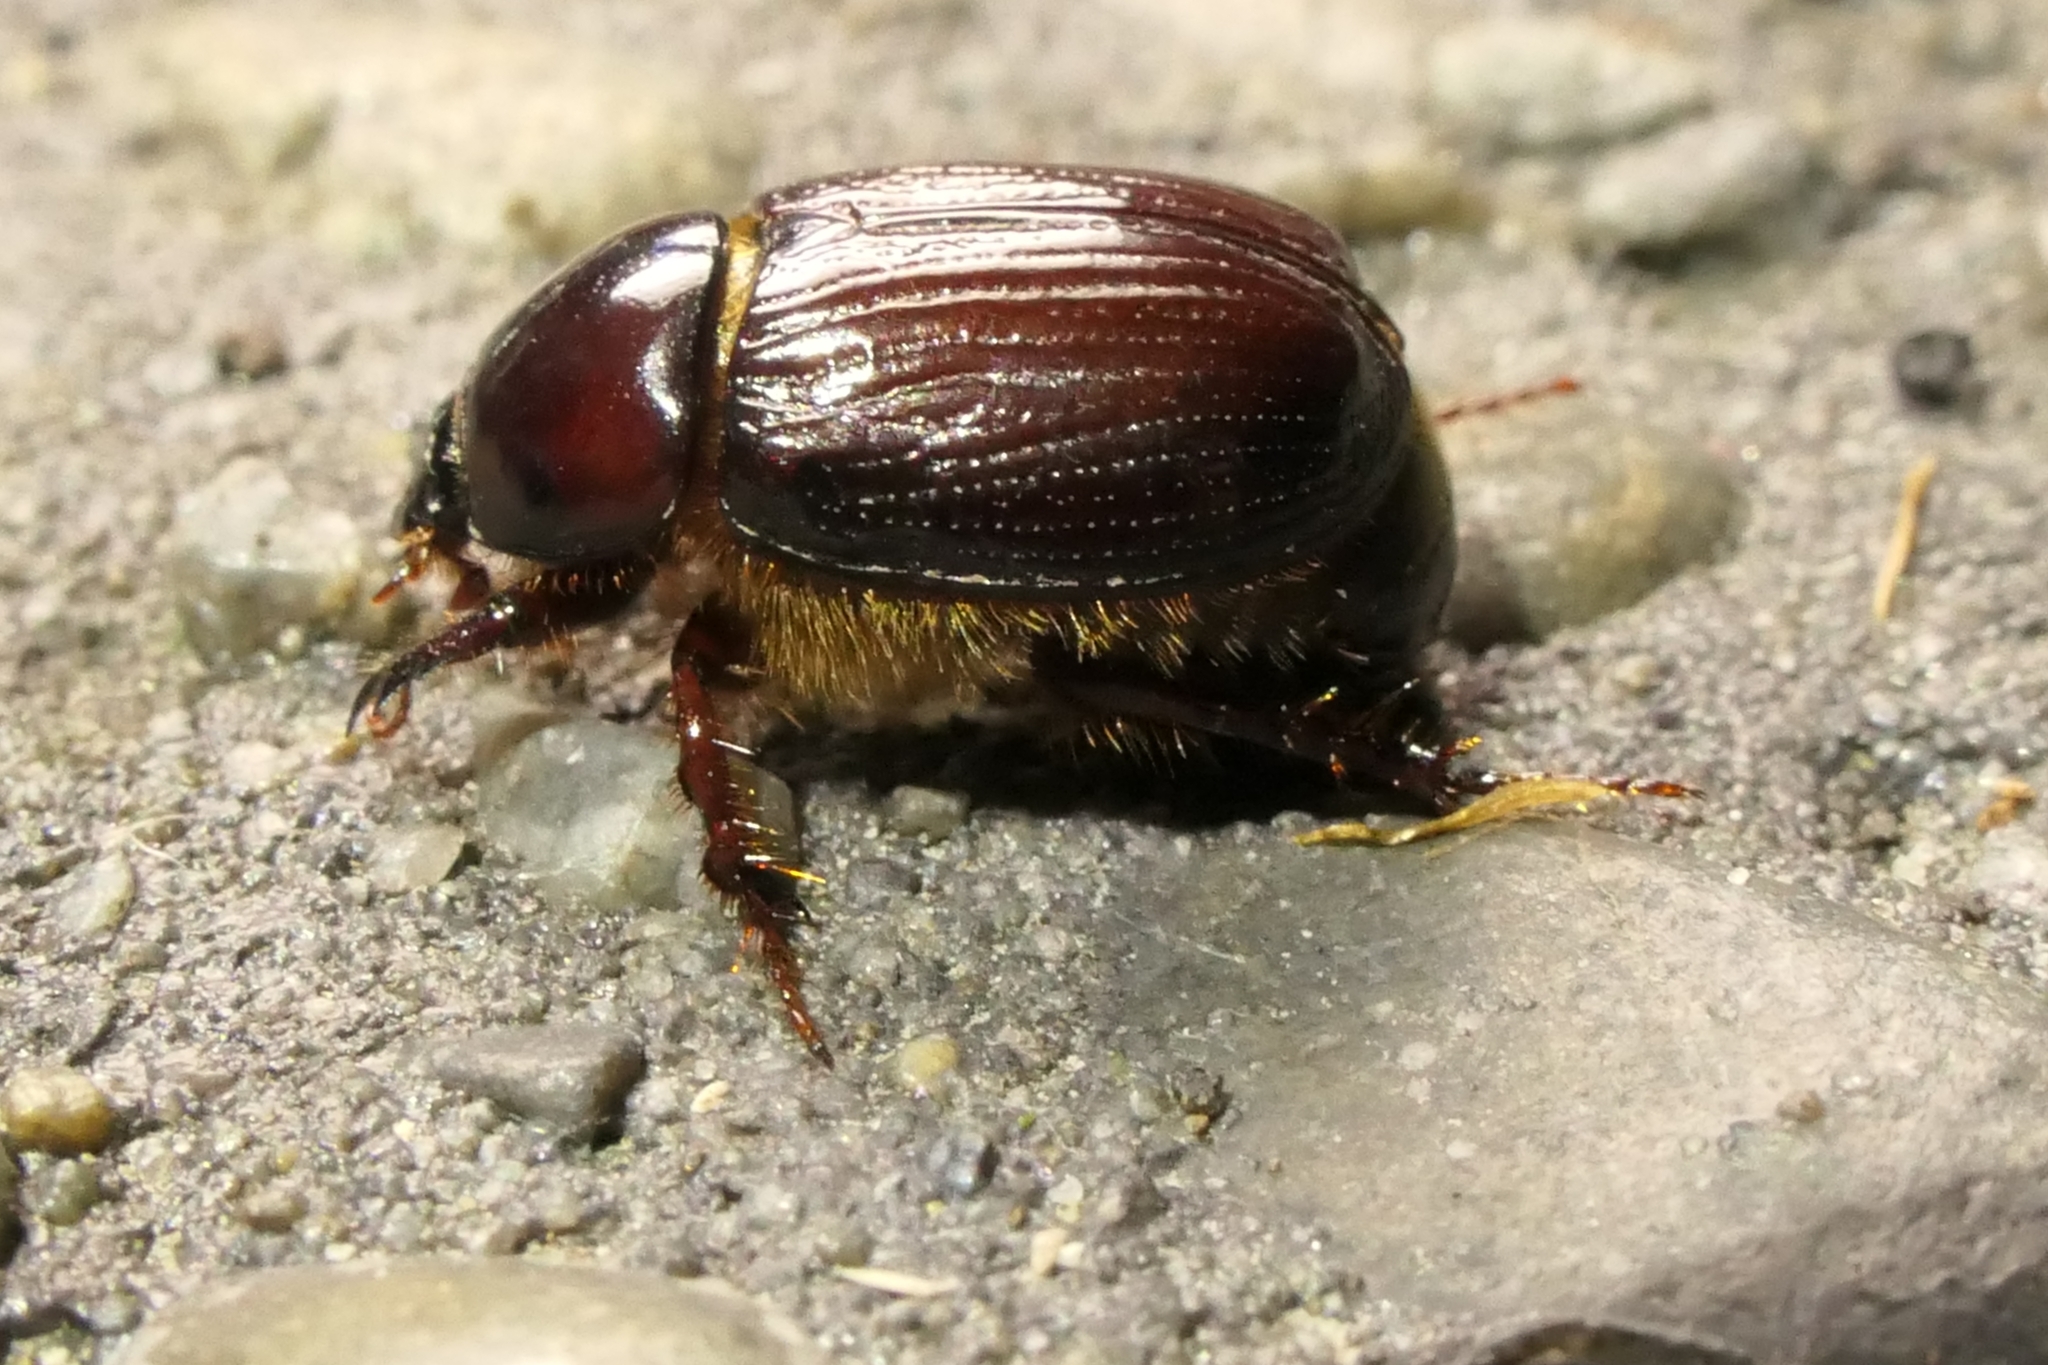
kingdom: Animalia
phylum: Arthropoda
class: Insecta
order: Coleoptera
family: Scarabaeidae
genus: Adoryphorus
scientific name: Adoryphorus couloni
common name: Redheaded pasture cockchafer
